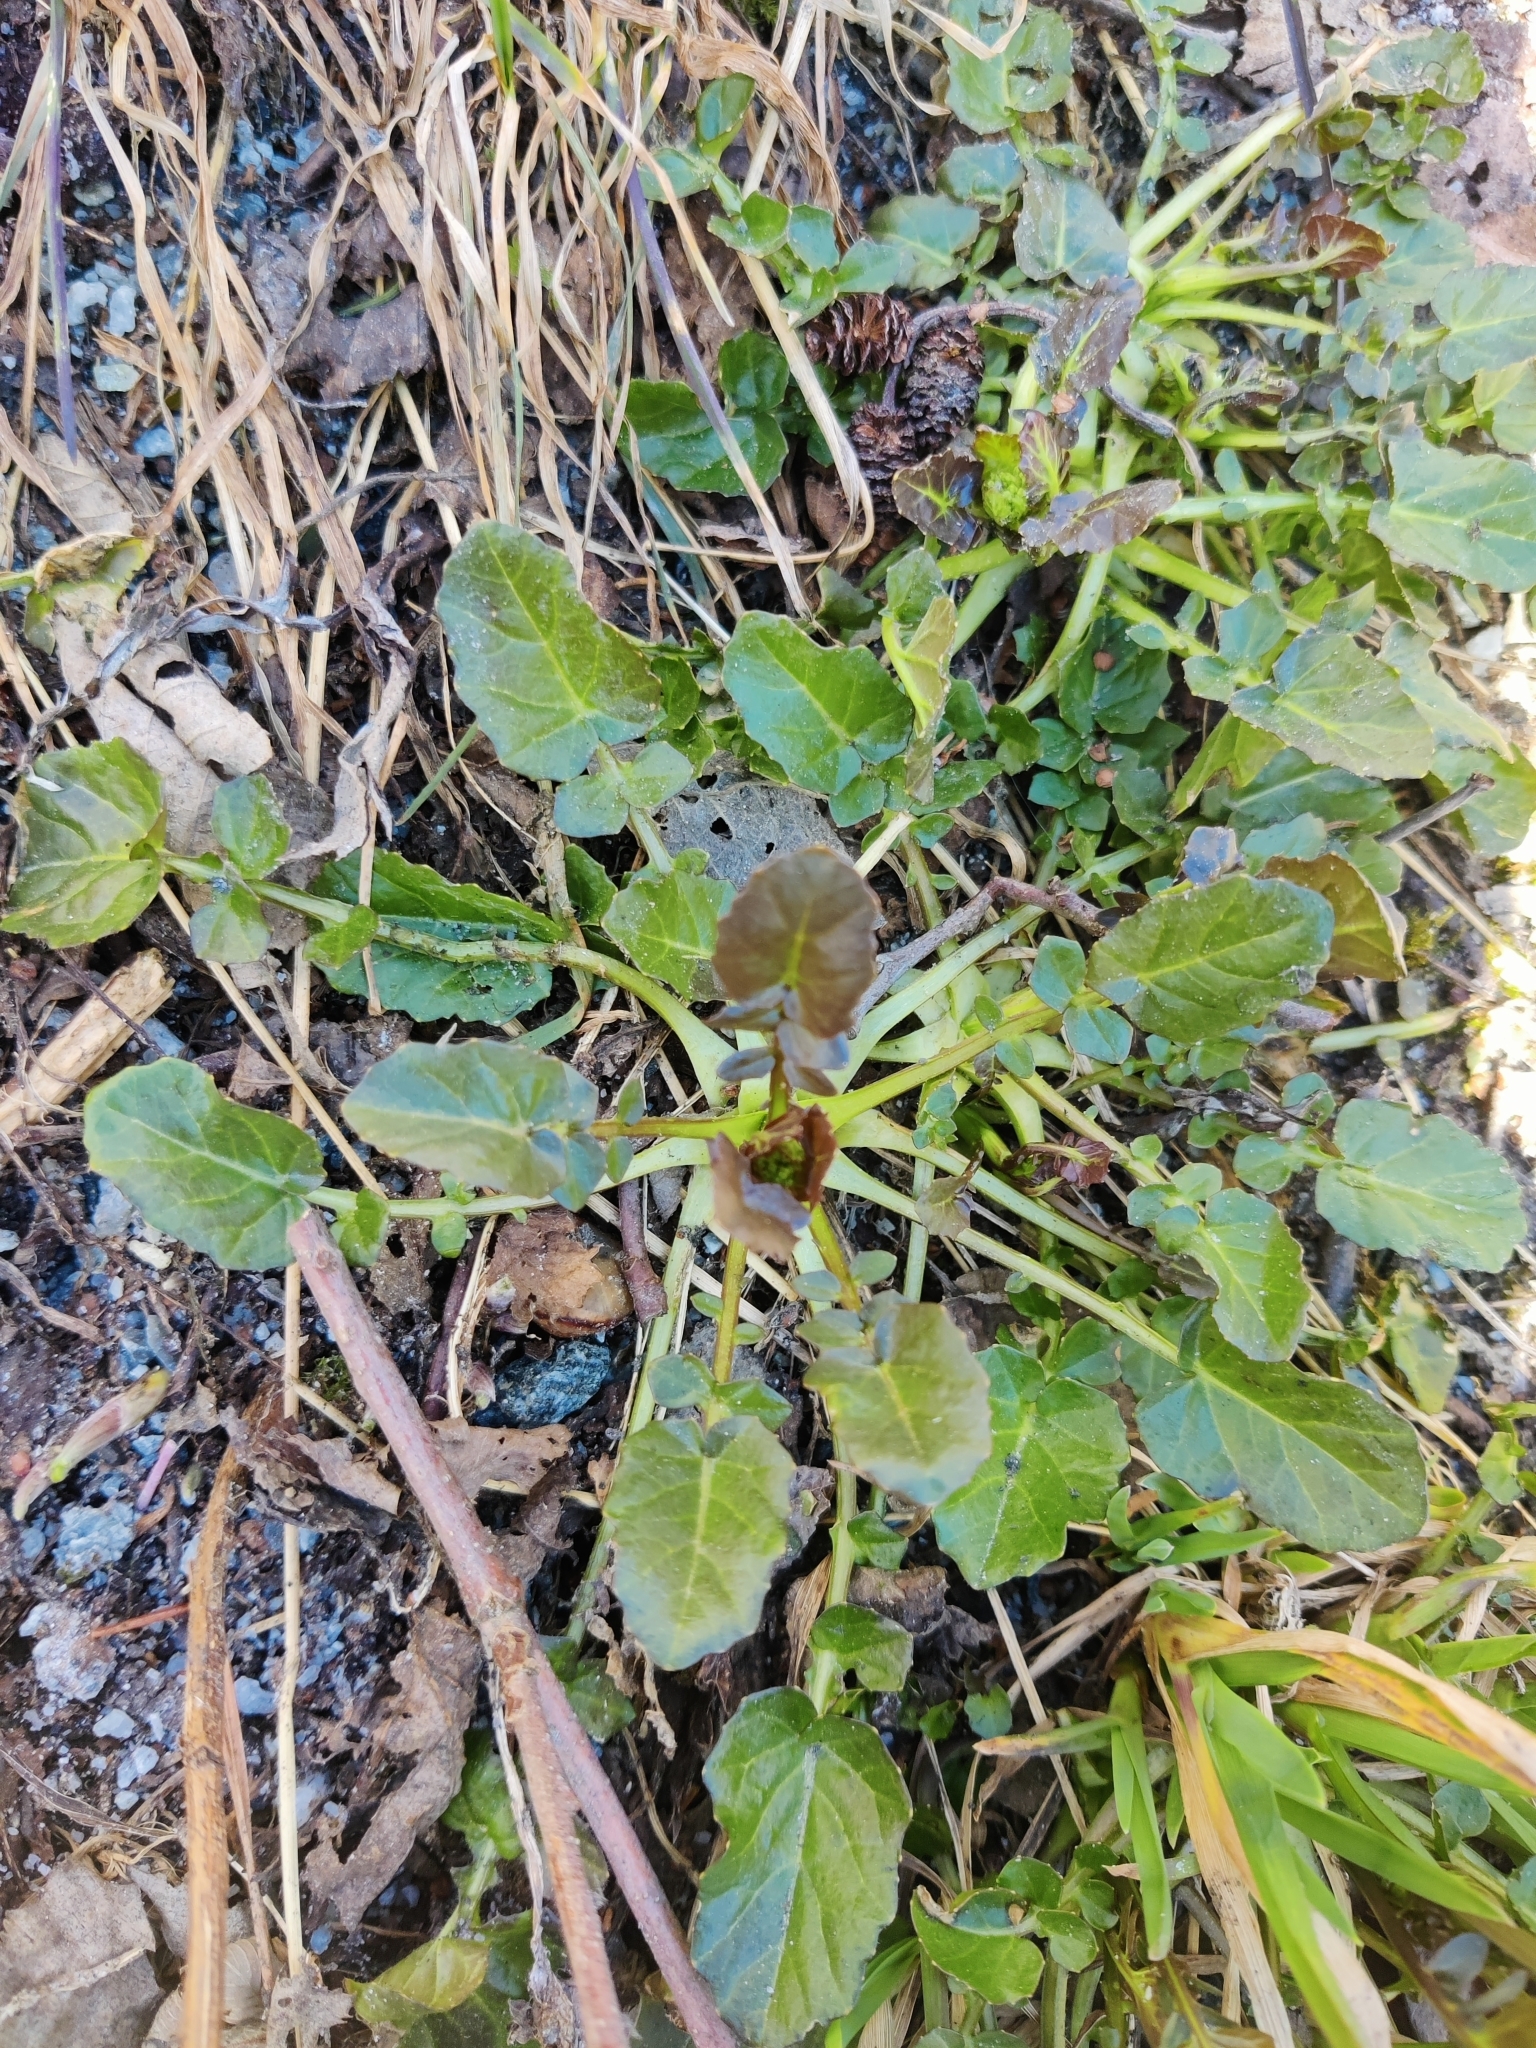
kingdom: Plantae
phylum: Tracheophyta
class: Magnoliopsida
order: Brassicales
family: Brassicaceae
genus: Barbarea
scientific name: Barbarea vulgaris
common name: Cressy-greens
